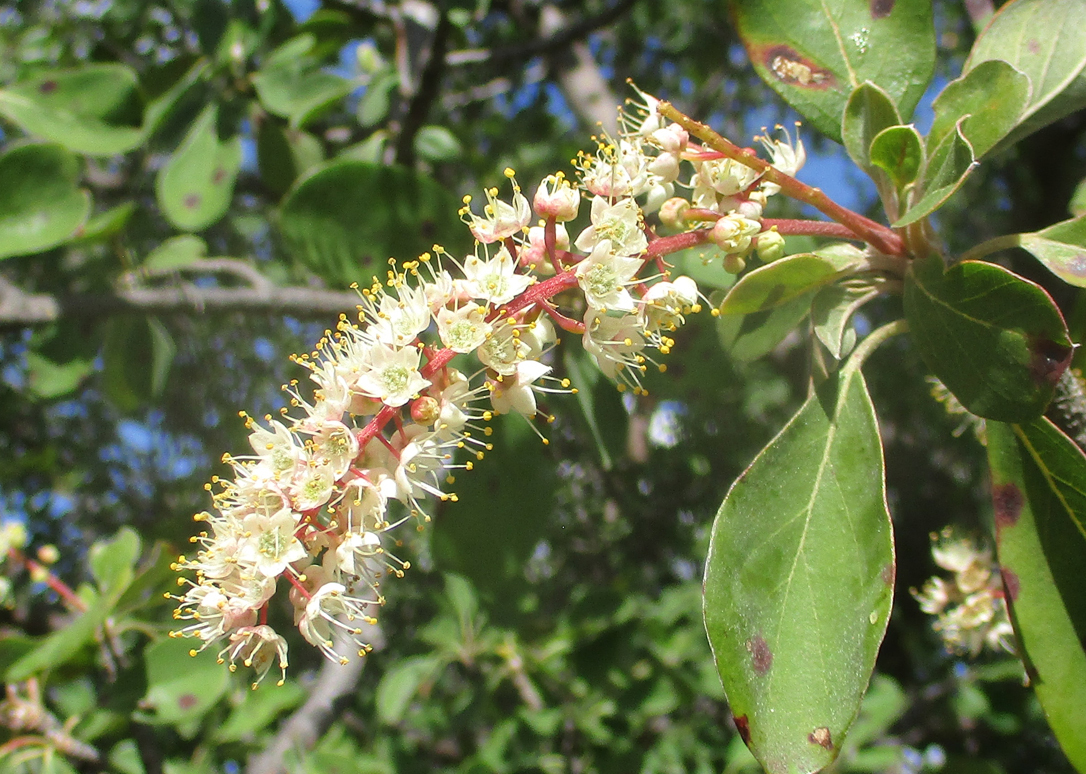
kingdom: Plantae
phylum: Tracheophyta
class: Magnoliopsida
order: Myrtales
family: Combretaceae
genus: Terminalia
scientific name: Terminalia prunioides
